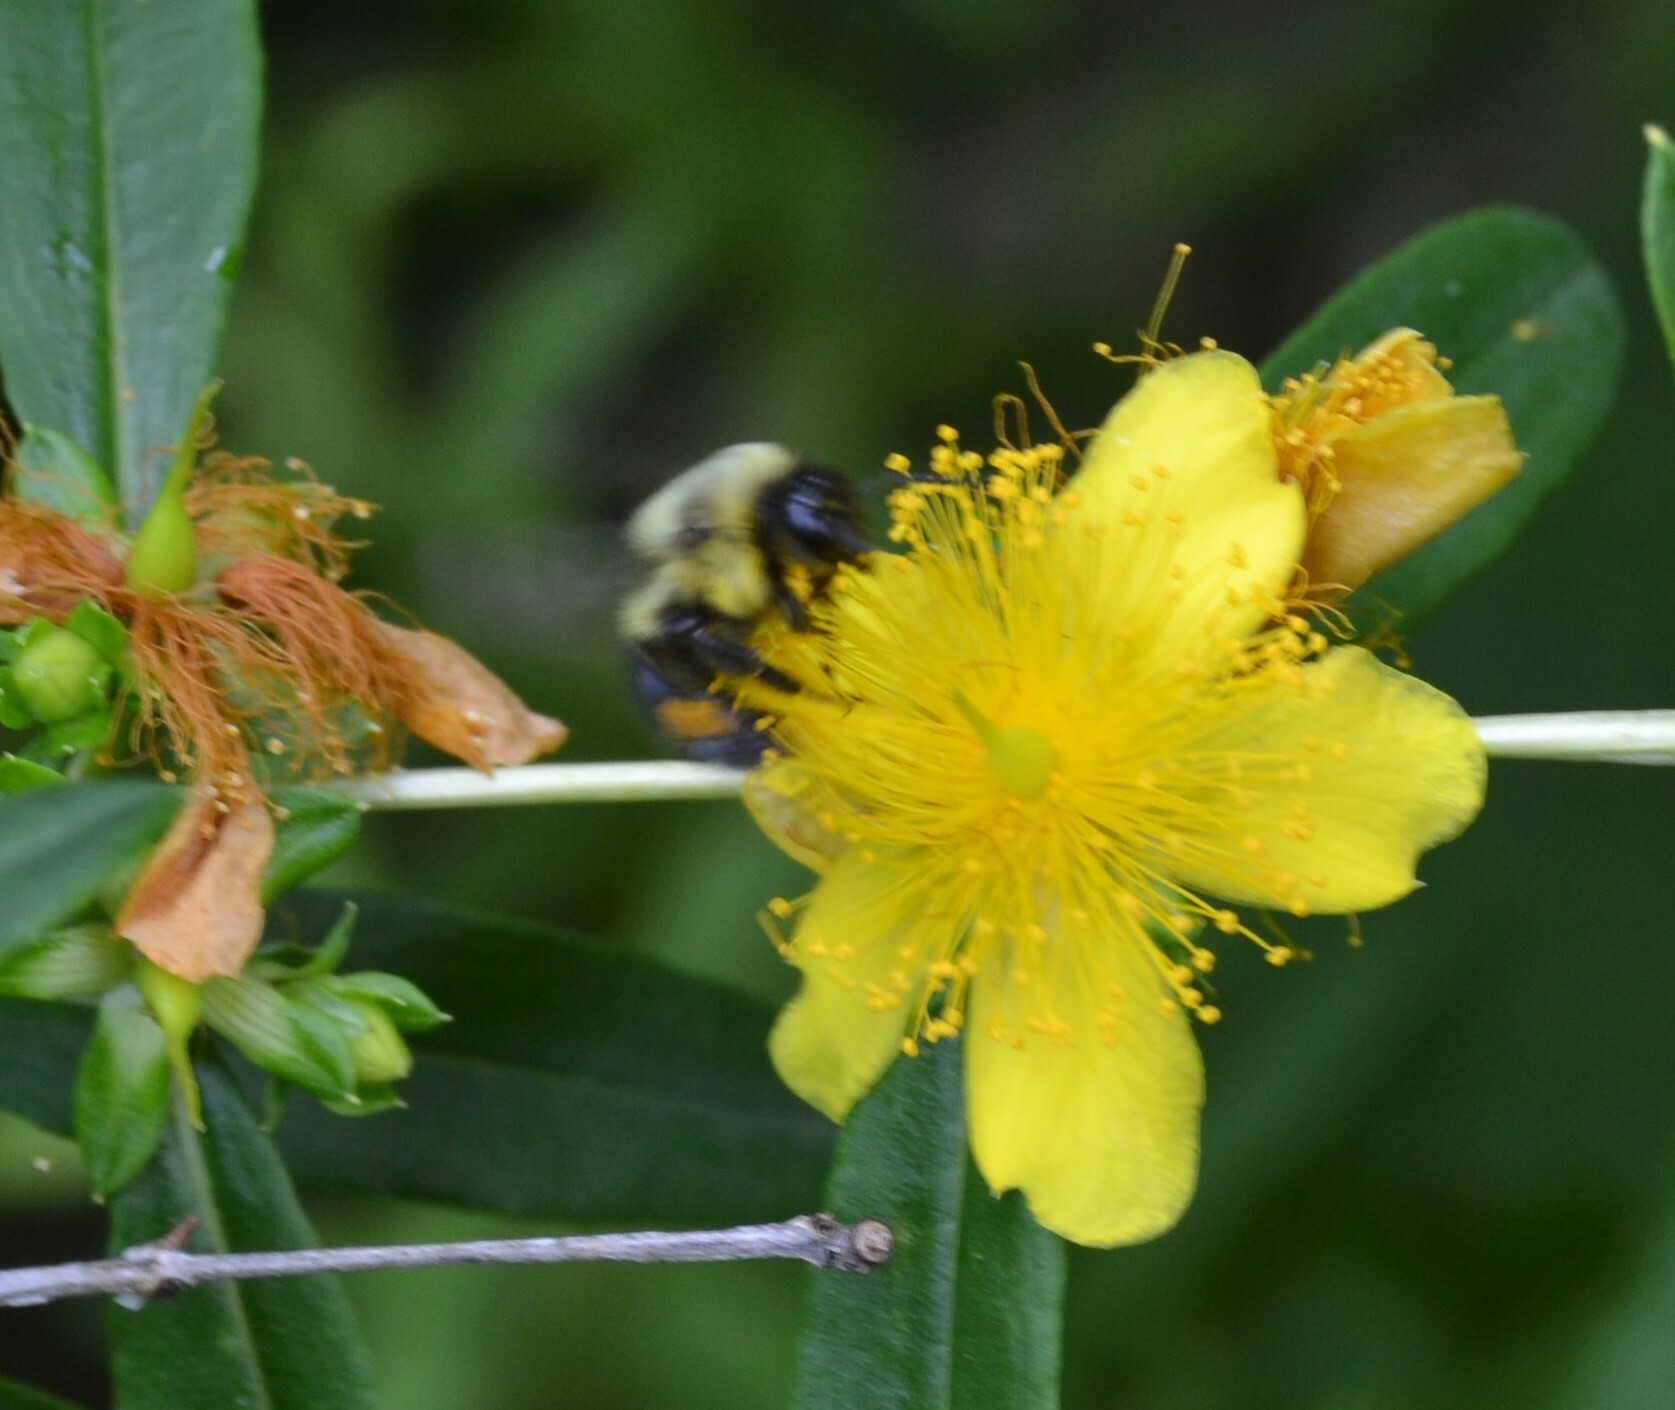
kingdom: Animalia
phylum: Arthropoda
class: Insecta
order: Hymenoptera
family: Apidae
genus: Bombus
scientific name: Bombus impatiens
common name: Common eastern bumble bee
